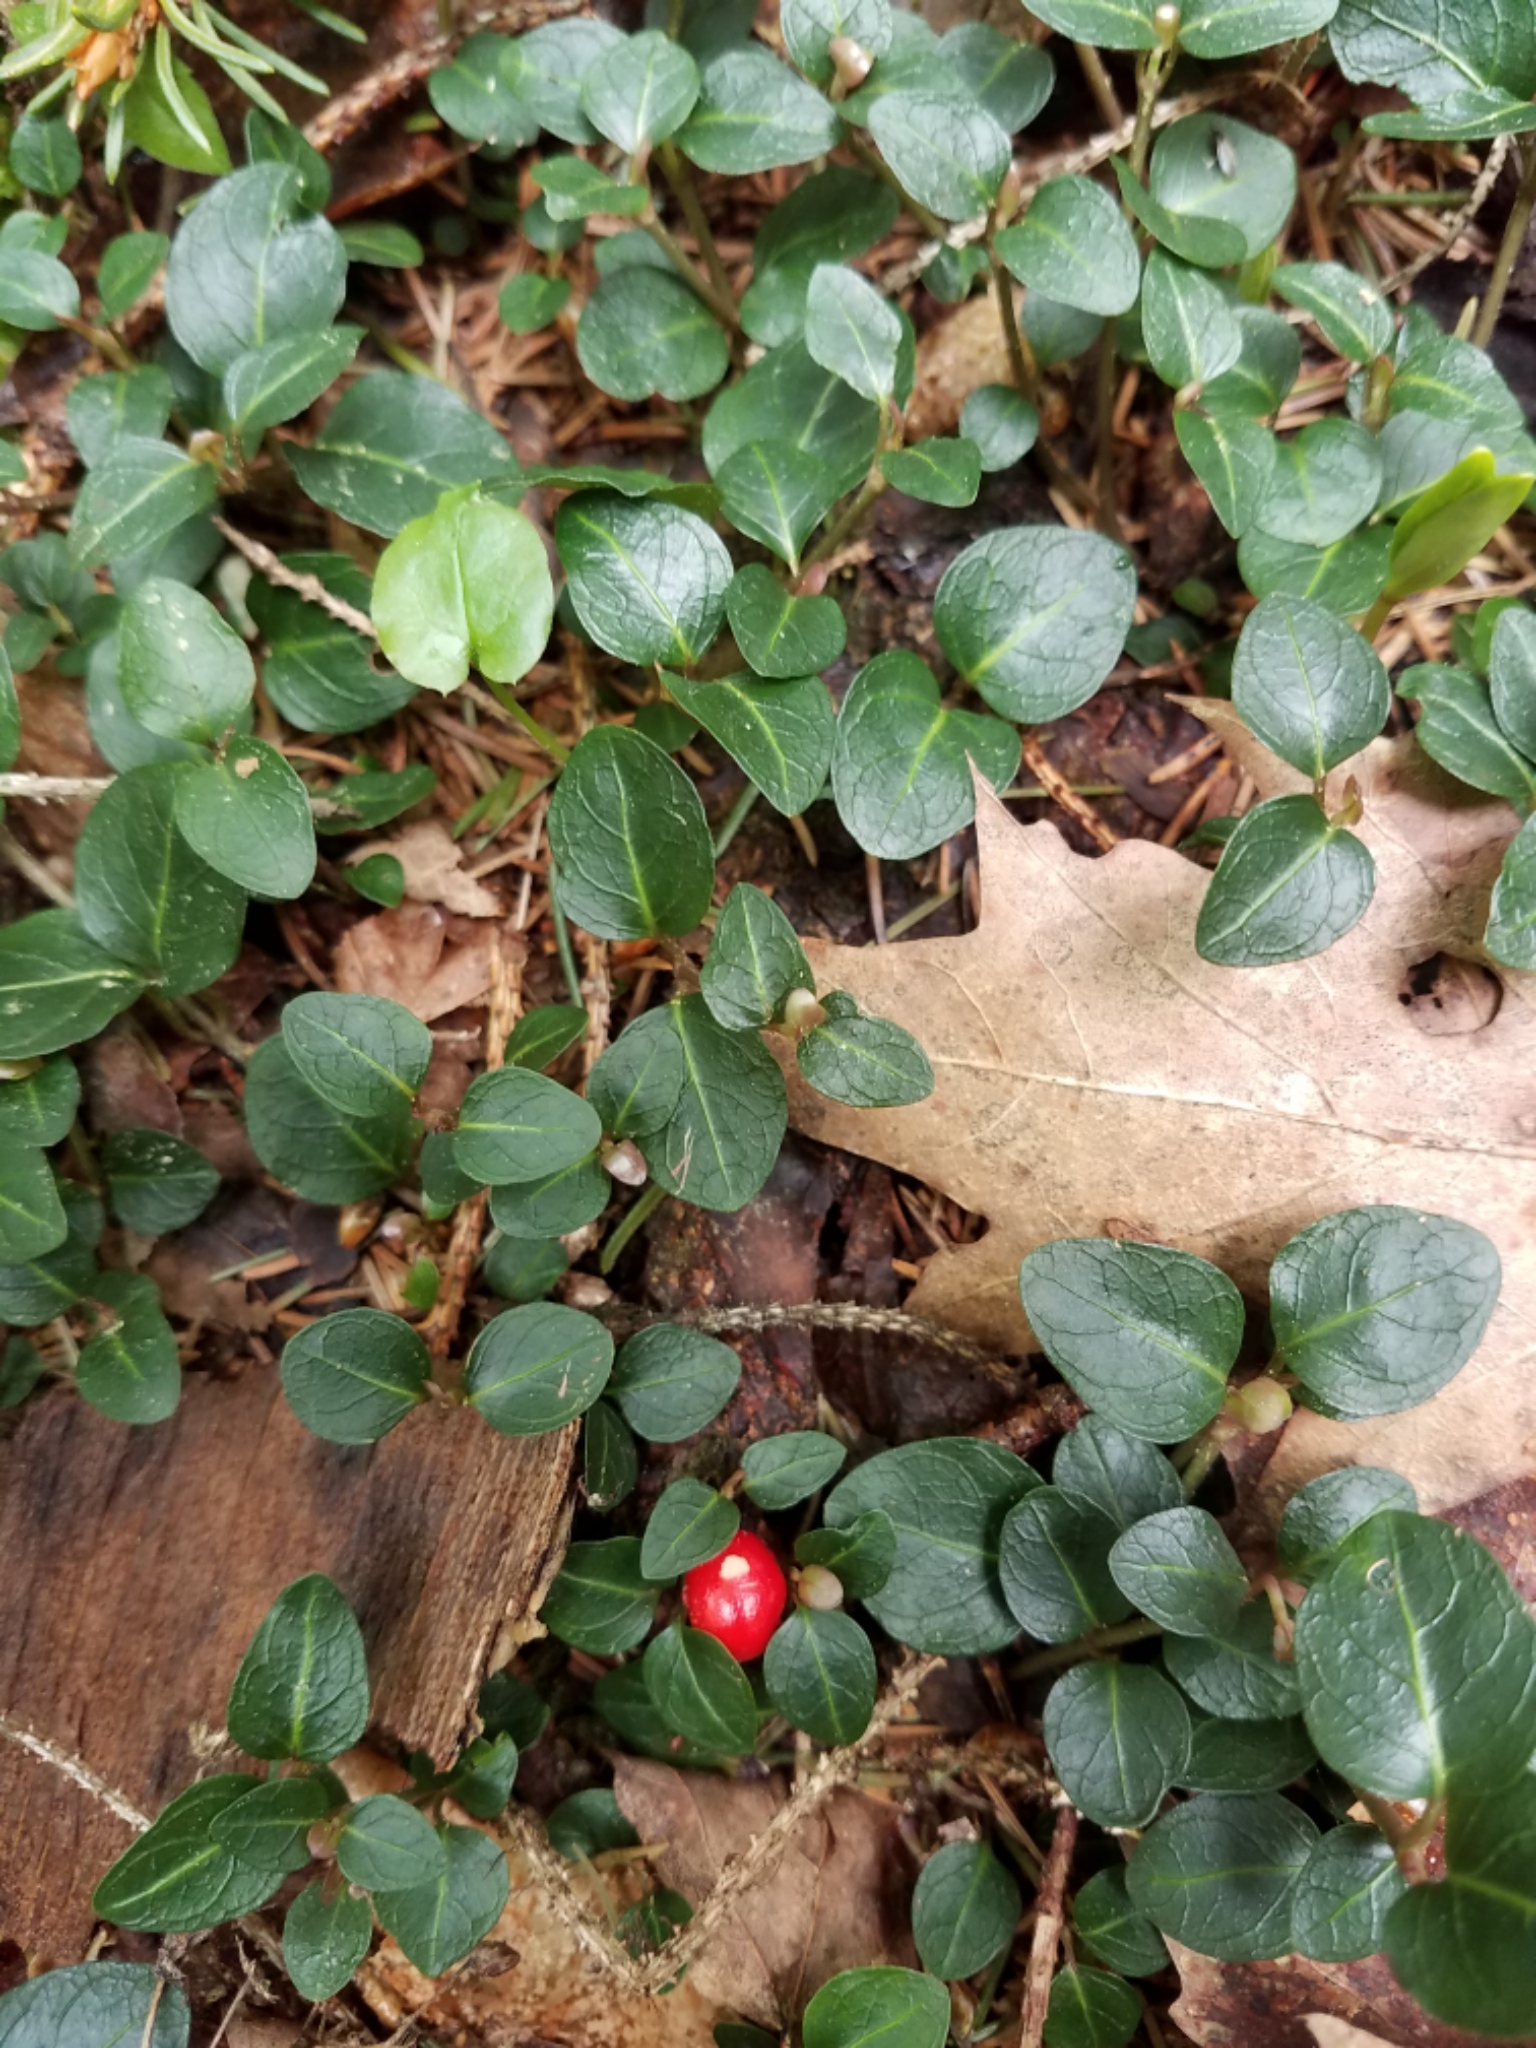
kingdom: Plantae
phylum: Tracheophyta
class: Magnoliopsida
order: Gentianales
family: Rubiaceae
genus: Mitchella
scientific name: Mitchella repens
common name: Partridge-berry
